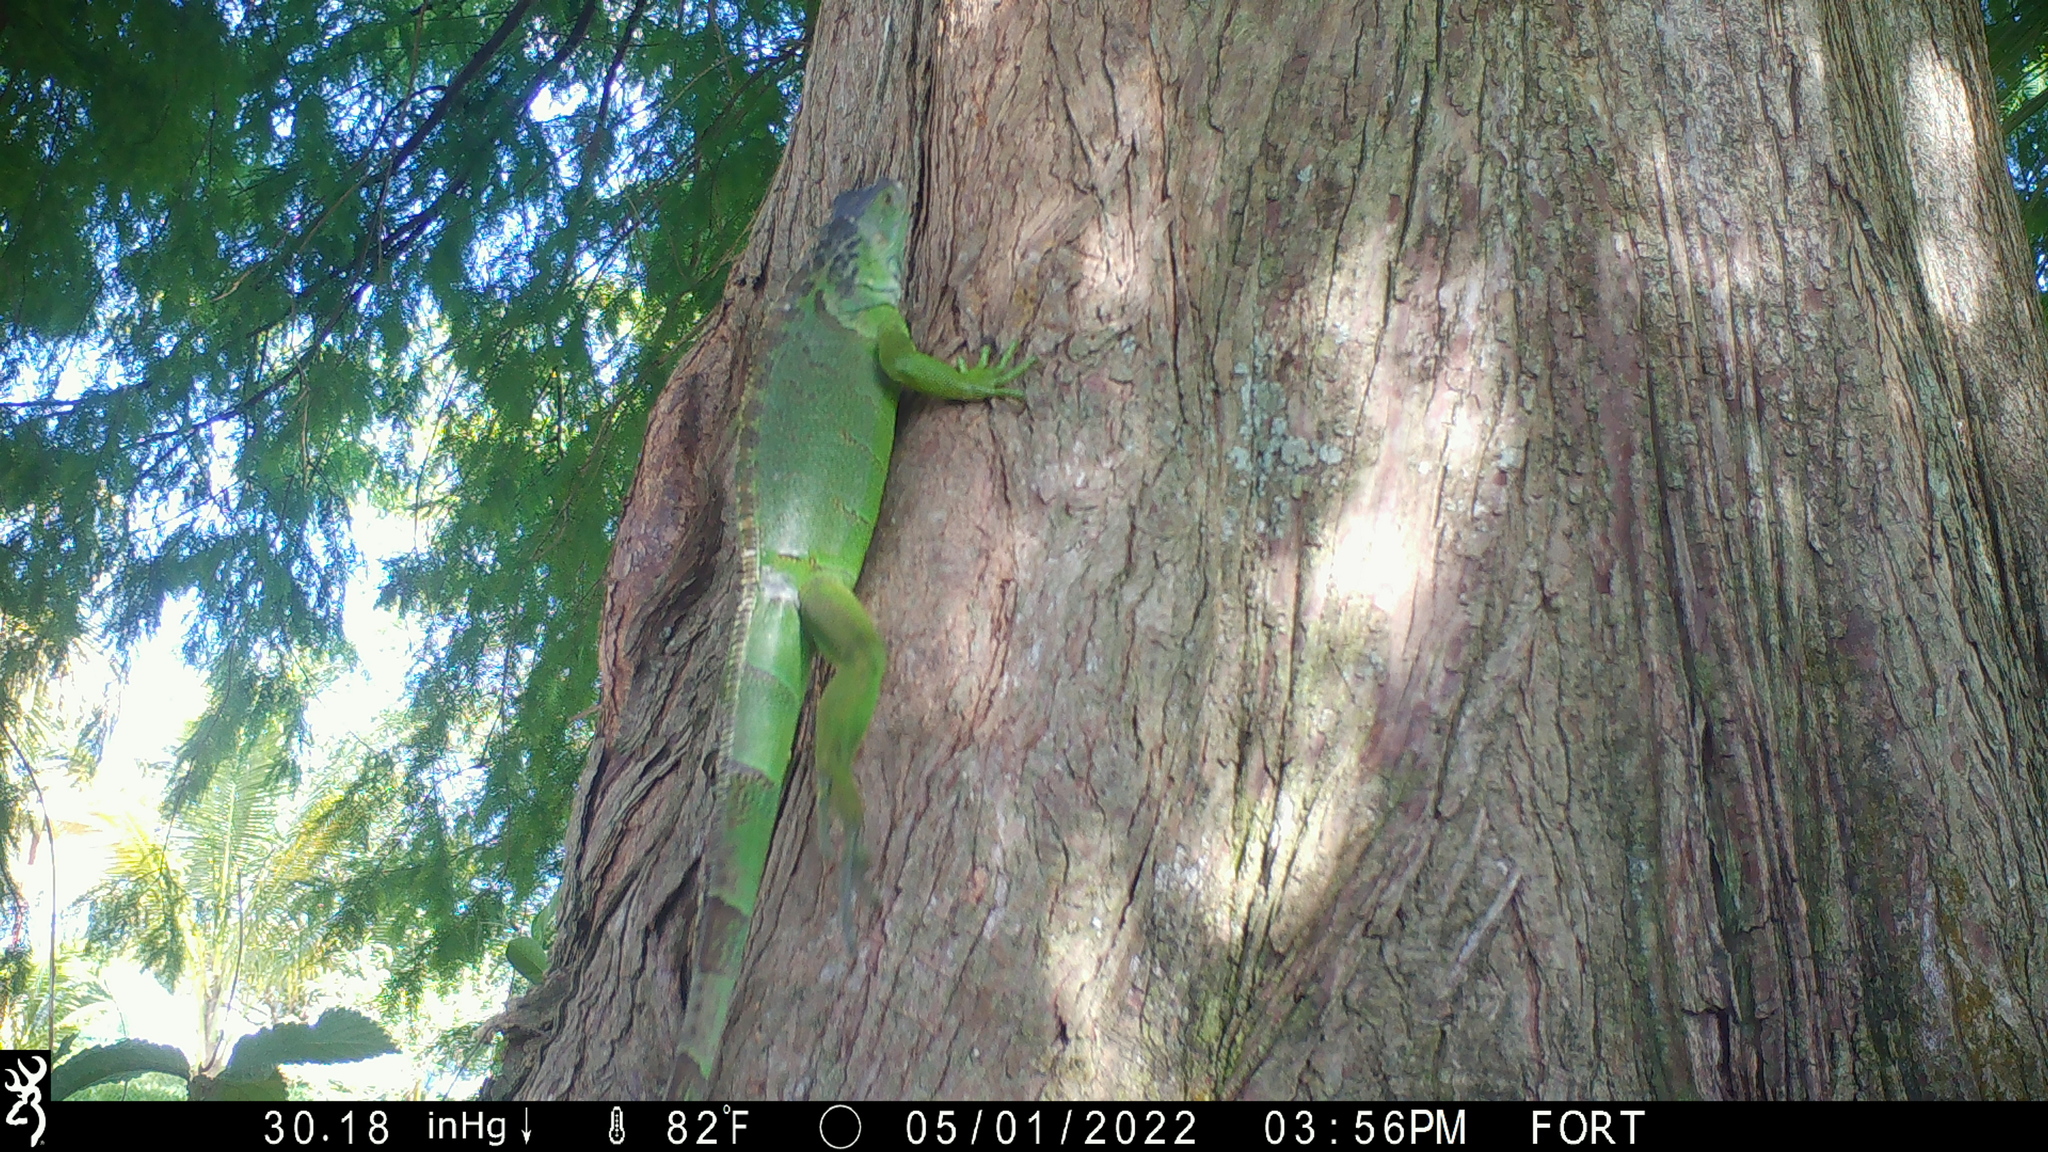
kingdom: Animalia
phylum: Chordata
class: Squamata
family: Iguanidae
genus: Iguana
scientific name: Iguana iguana
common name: Green iguana
